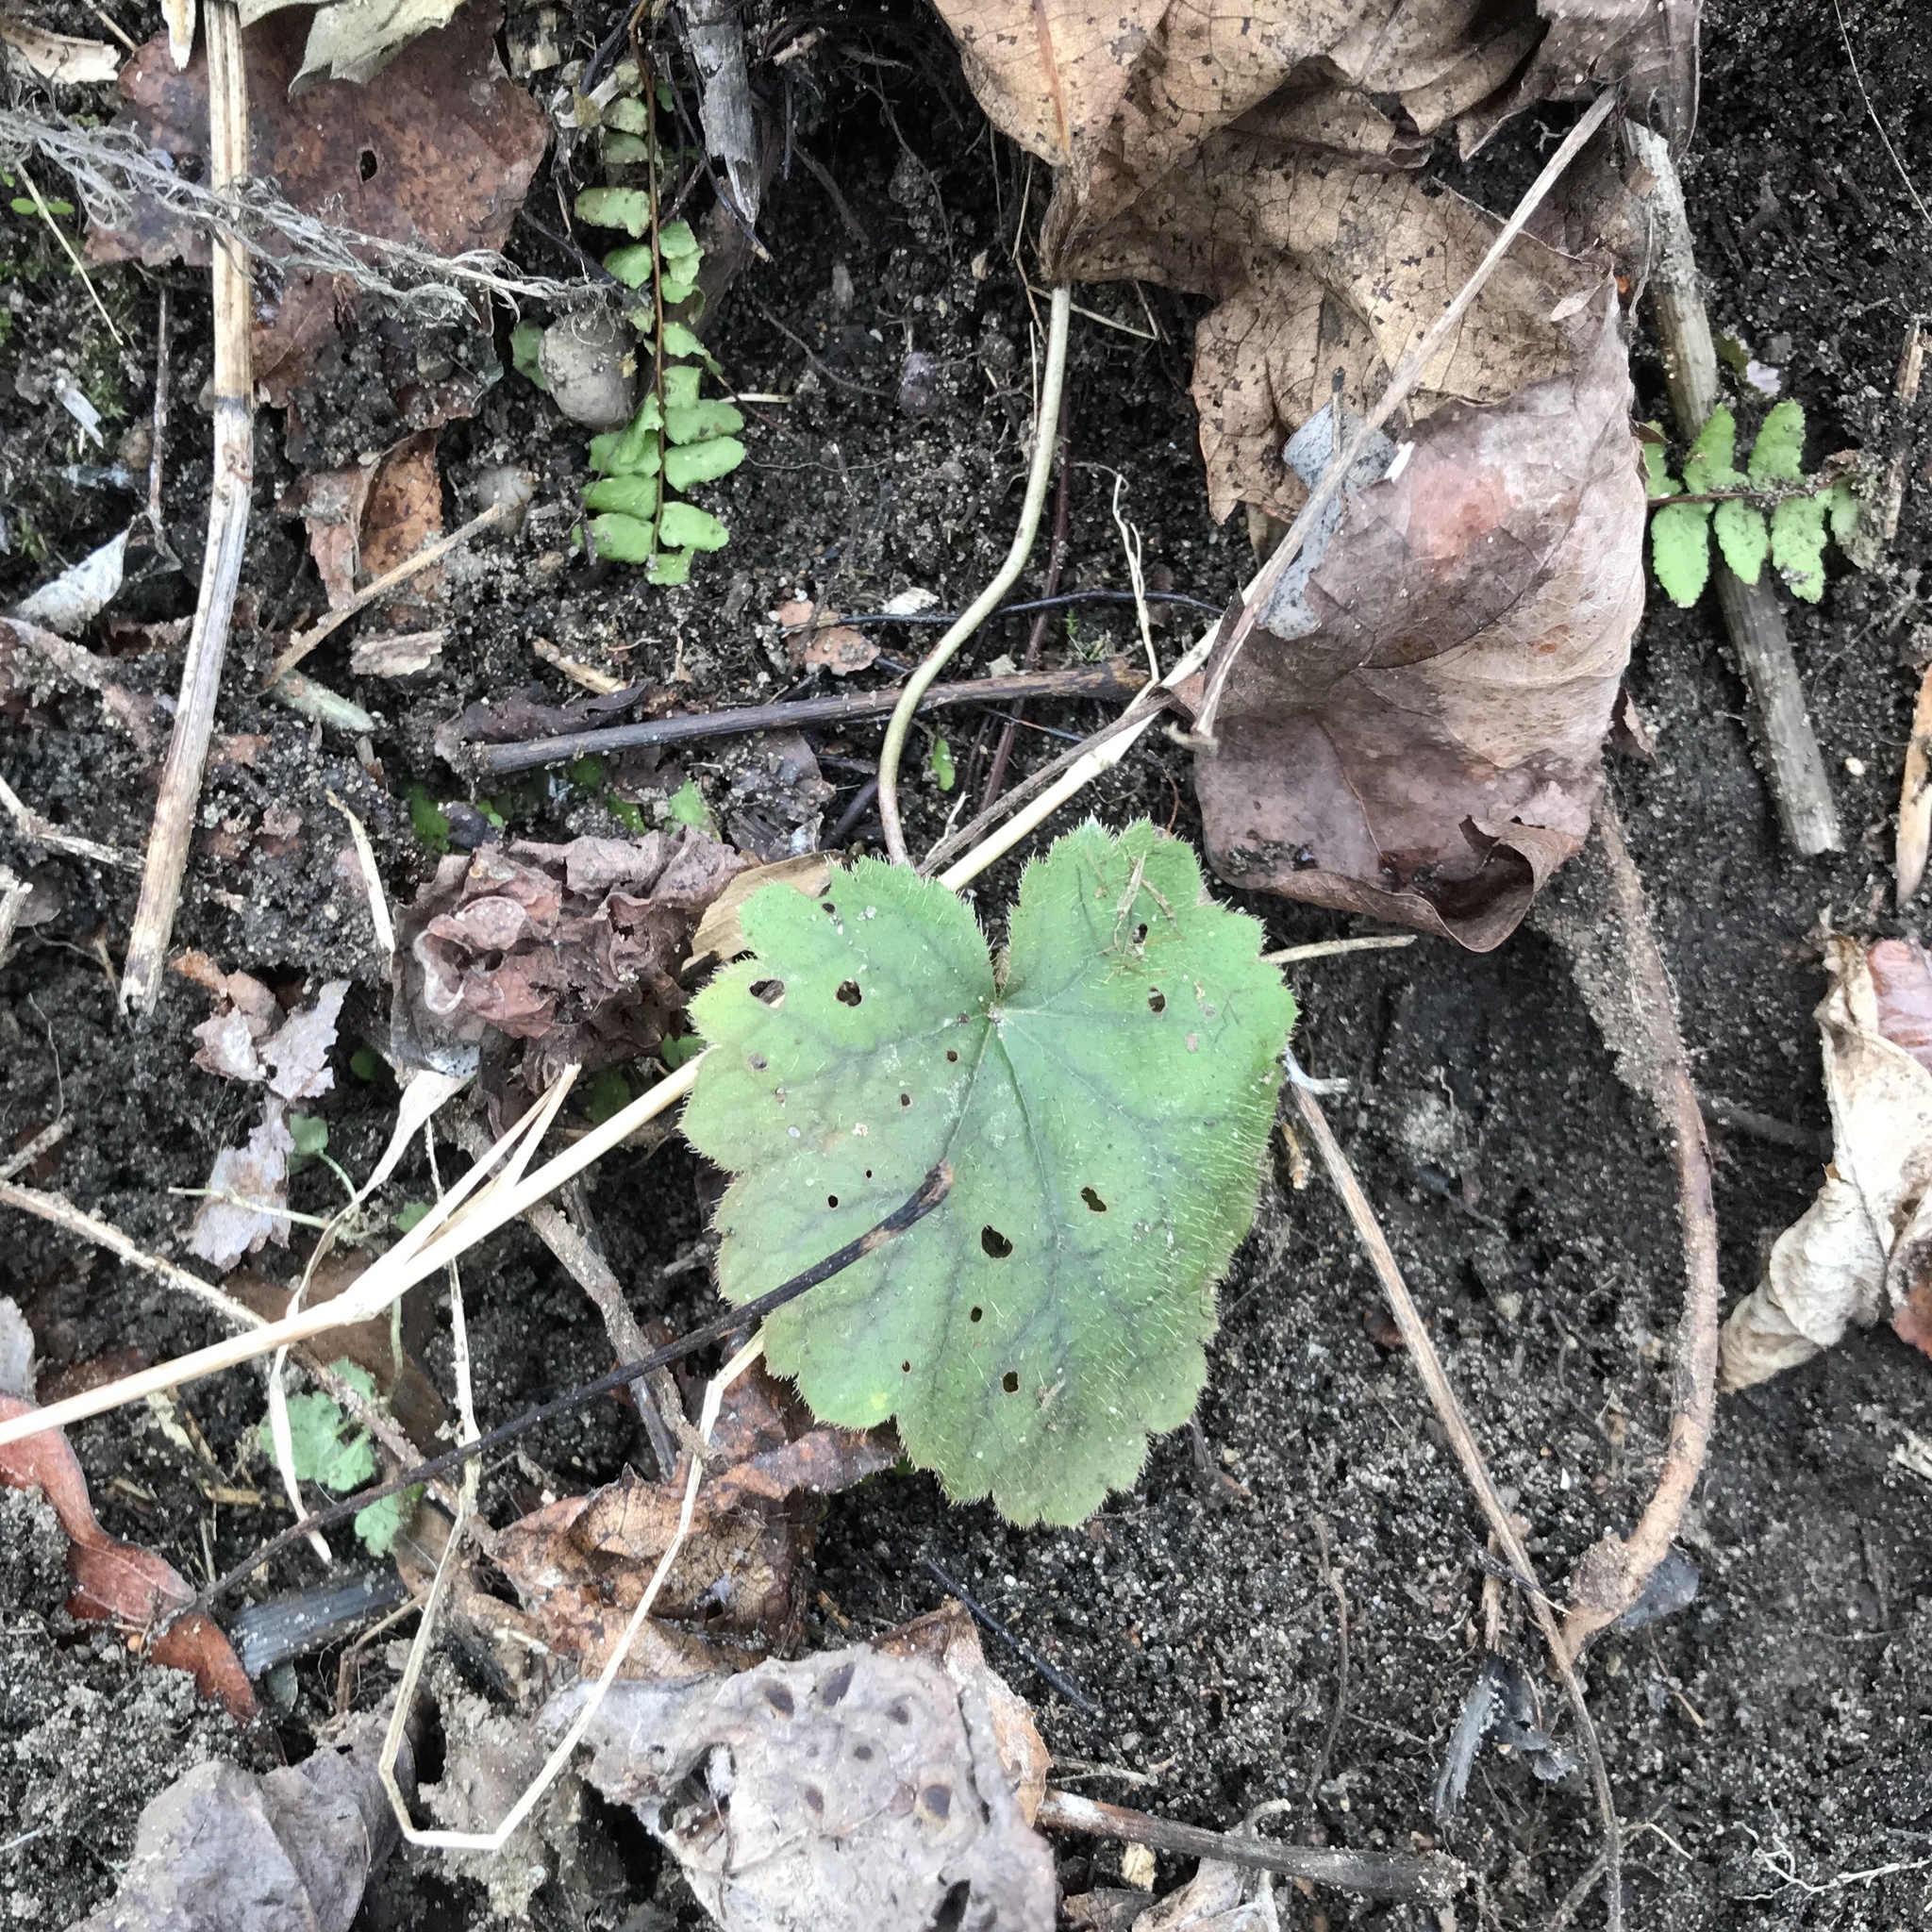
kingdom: Plantae
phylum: Tracheophyta
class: Magnoliopsida
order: Saxifragales
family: Saxifragaceae
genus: Heuchera
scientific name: Heuchera americana
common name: Alumroot
